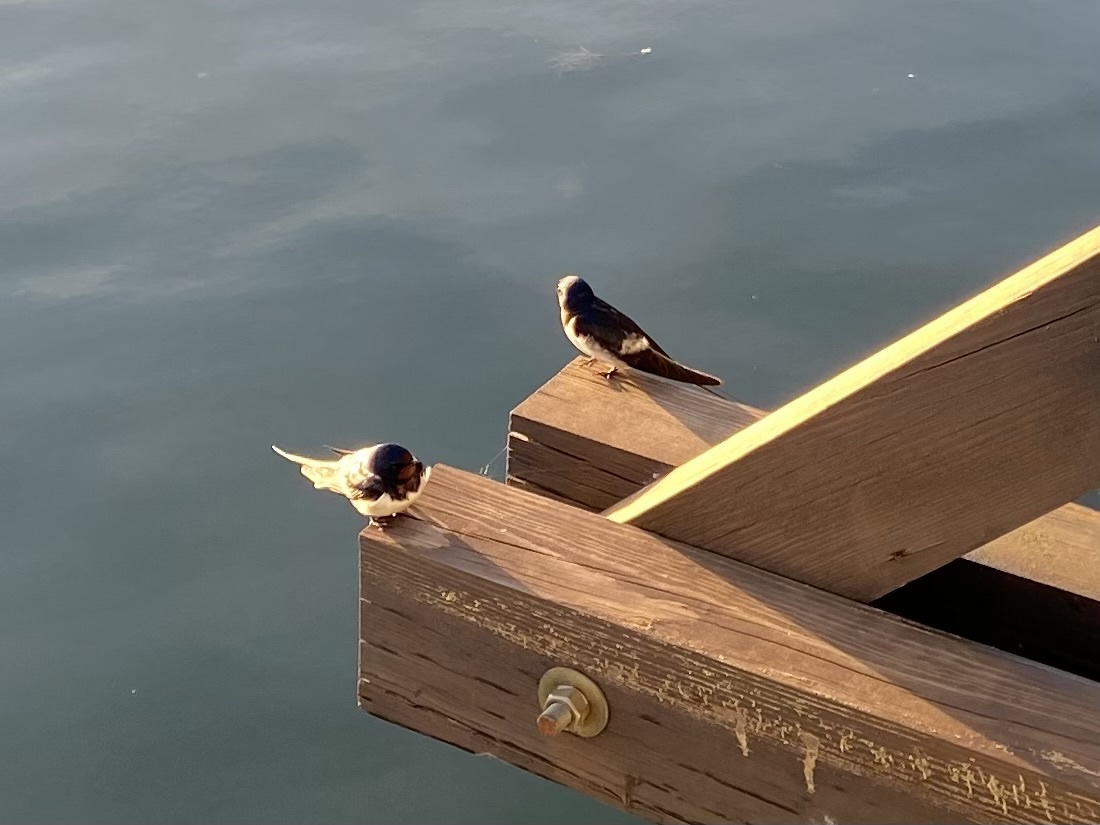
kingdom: Animalia
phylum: Chordata
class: Aves
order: Passeriformes
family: Hirundinidae
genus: Hirundo
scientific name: Hirundo rustica
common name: Barn swallow
